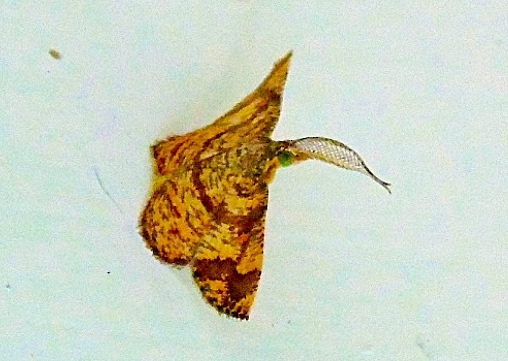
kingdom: Animalia
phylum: Arthropoda
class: Insecta
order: Lepidoptera
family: Geometridae
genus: Eois
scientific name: Eois
